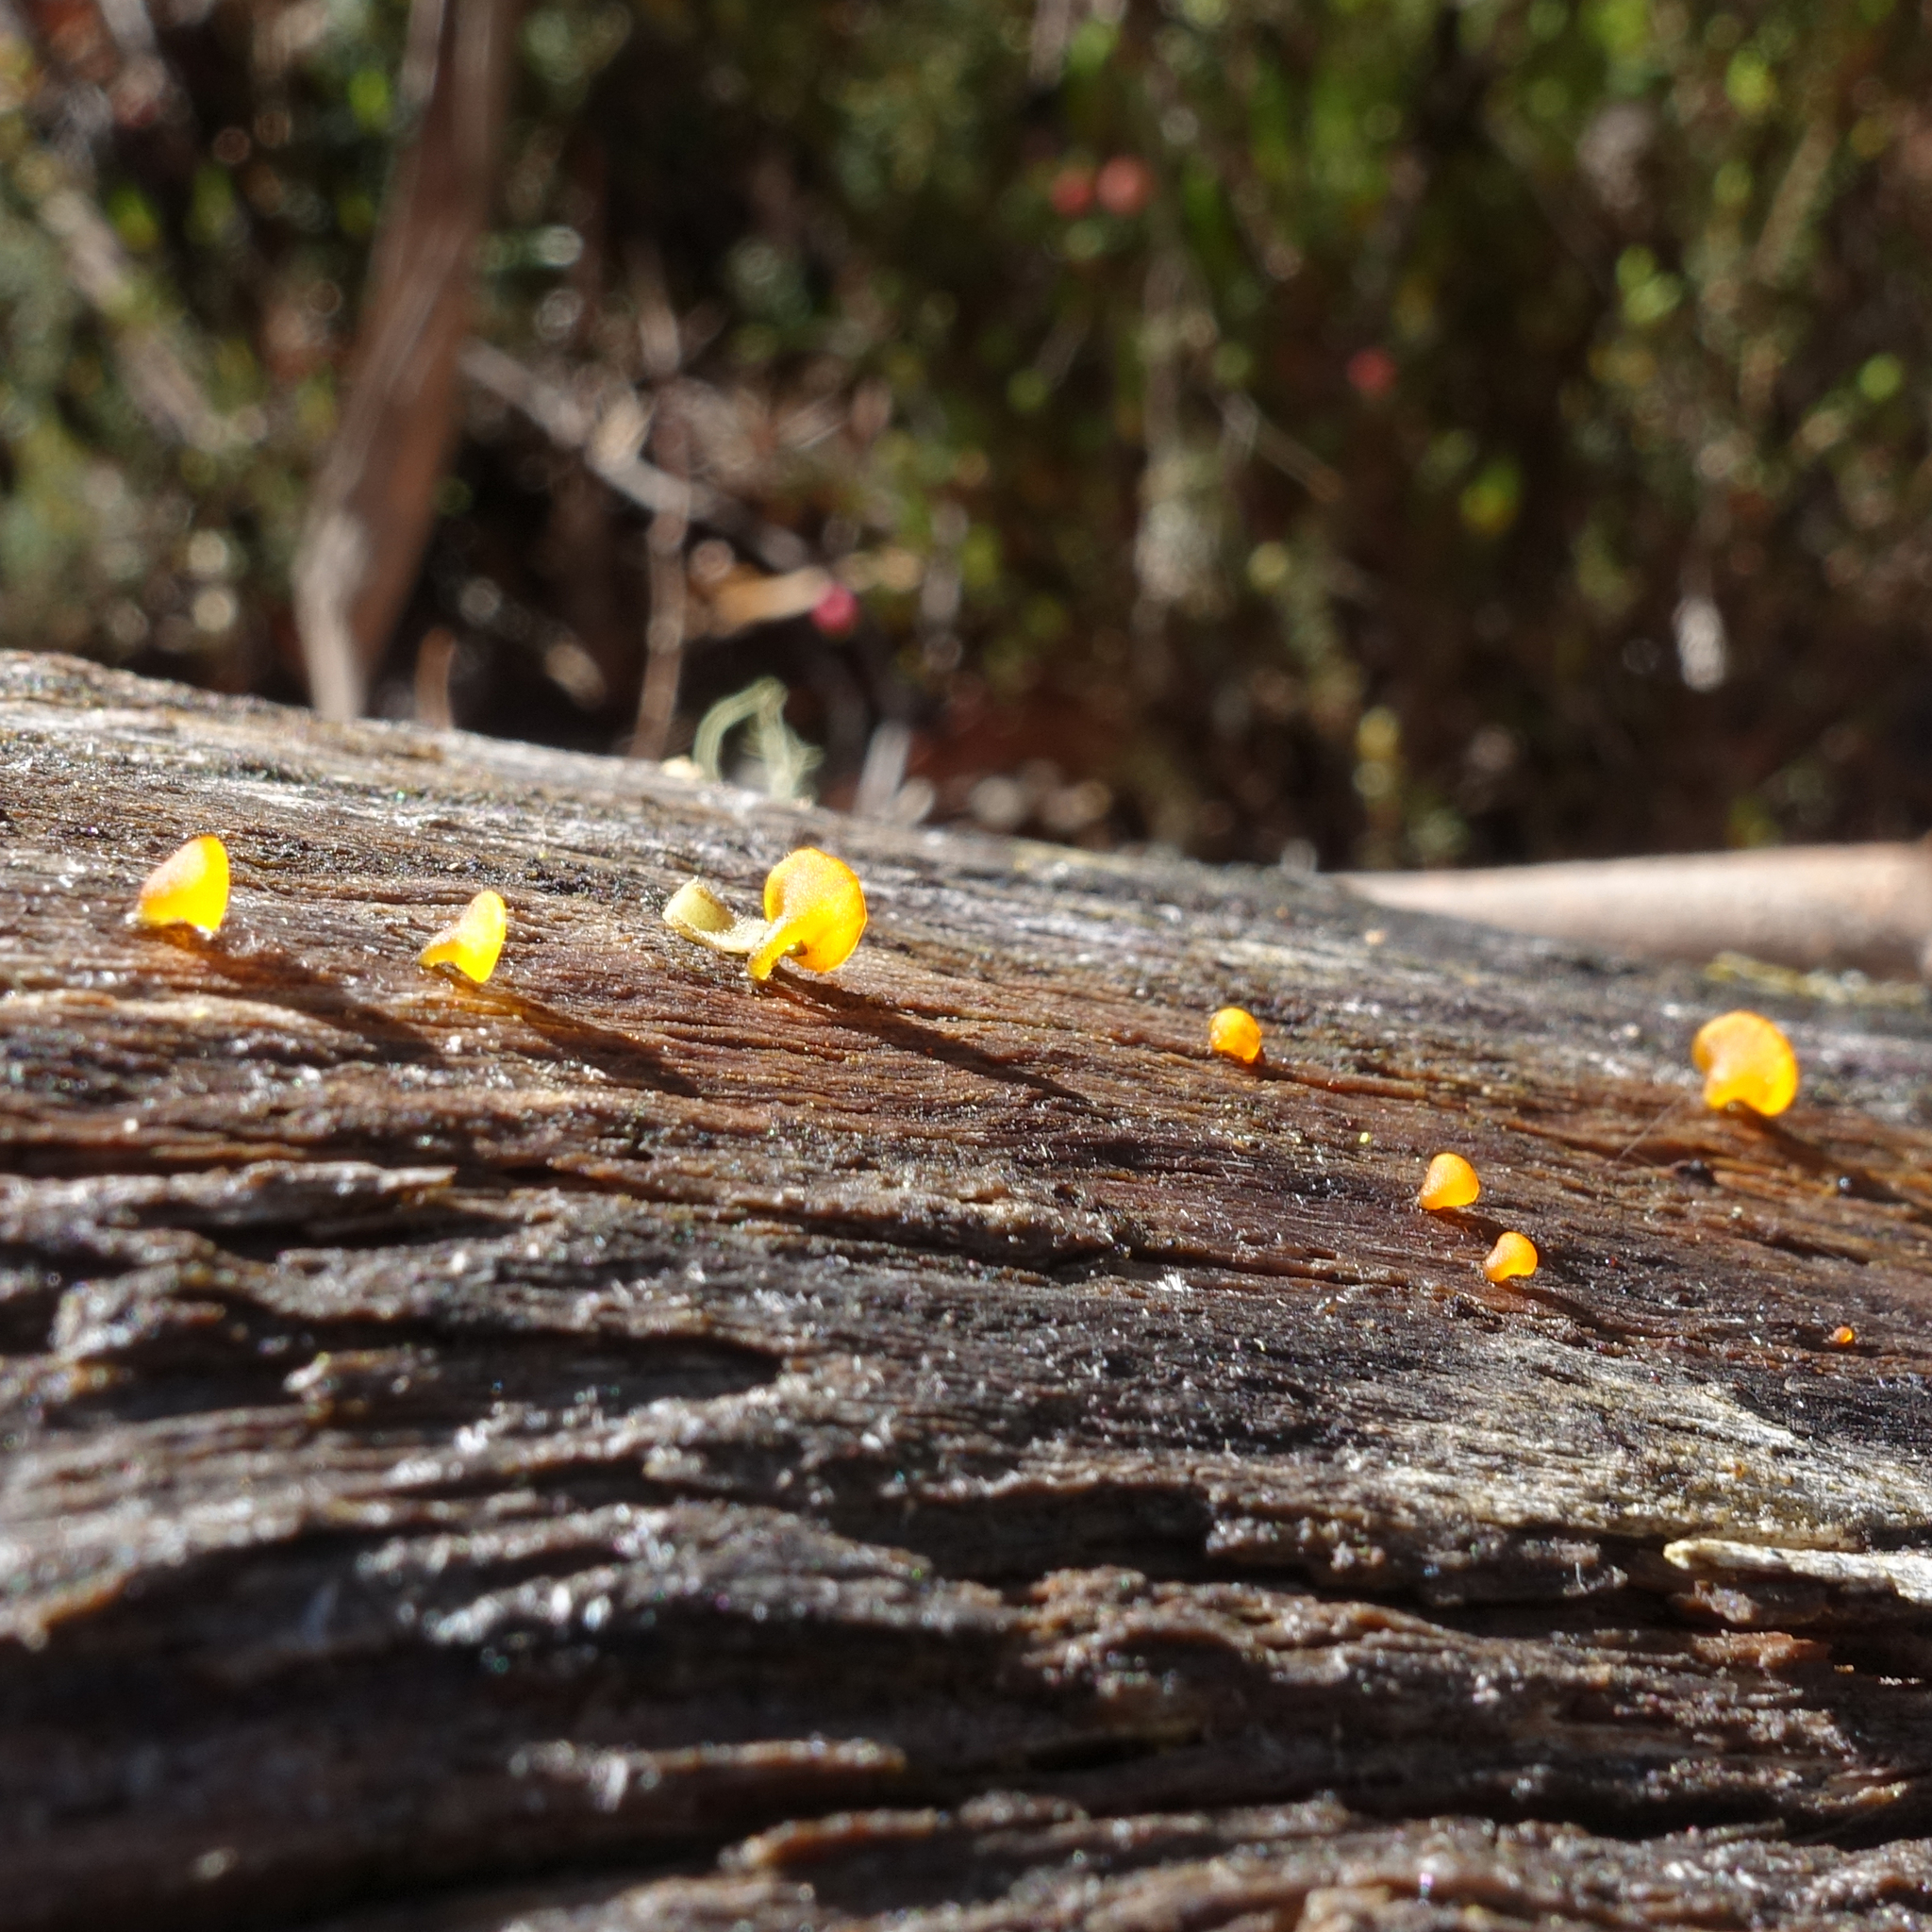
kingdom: Fungi
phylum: Basidiomycota
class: Dacrymycetes
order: Dacrymycetales
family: Dacrymycetaceae
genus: Heterotextus
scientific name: Heterotextus peziziformis
